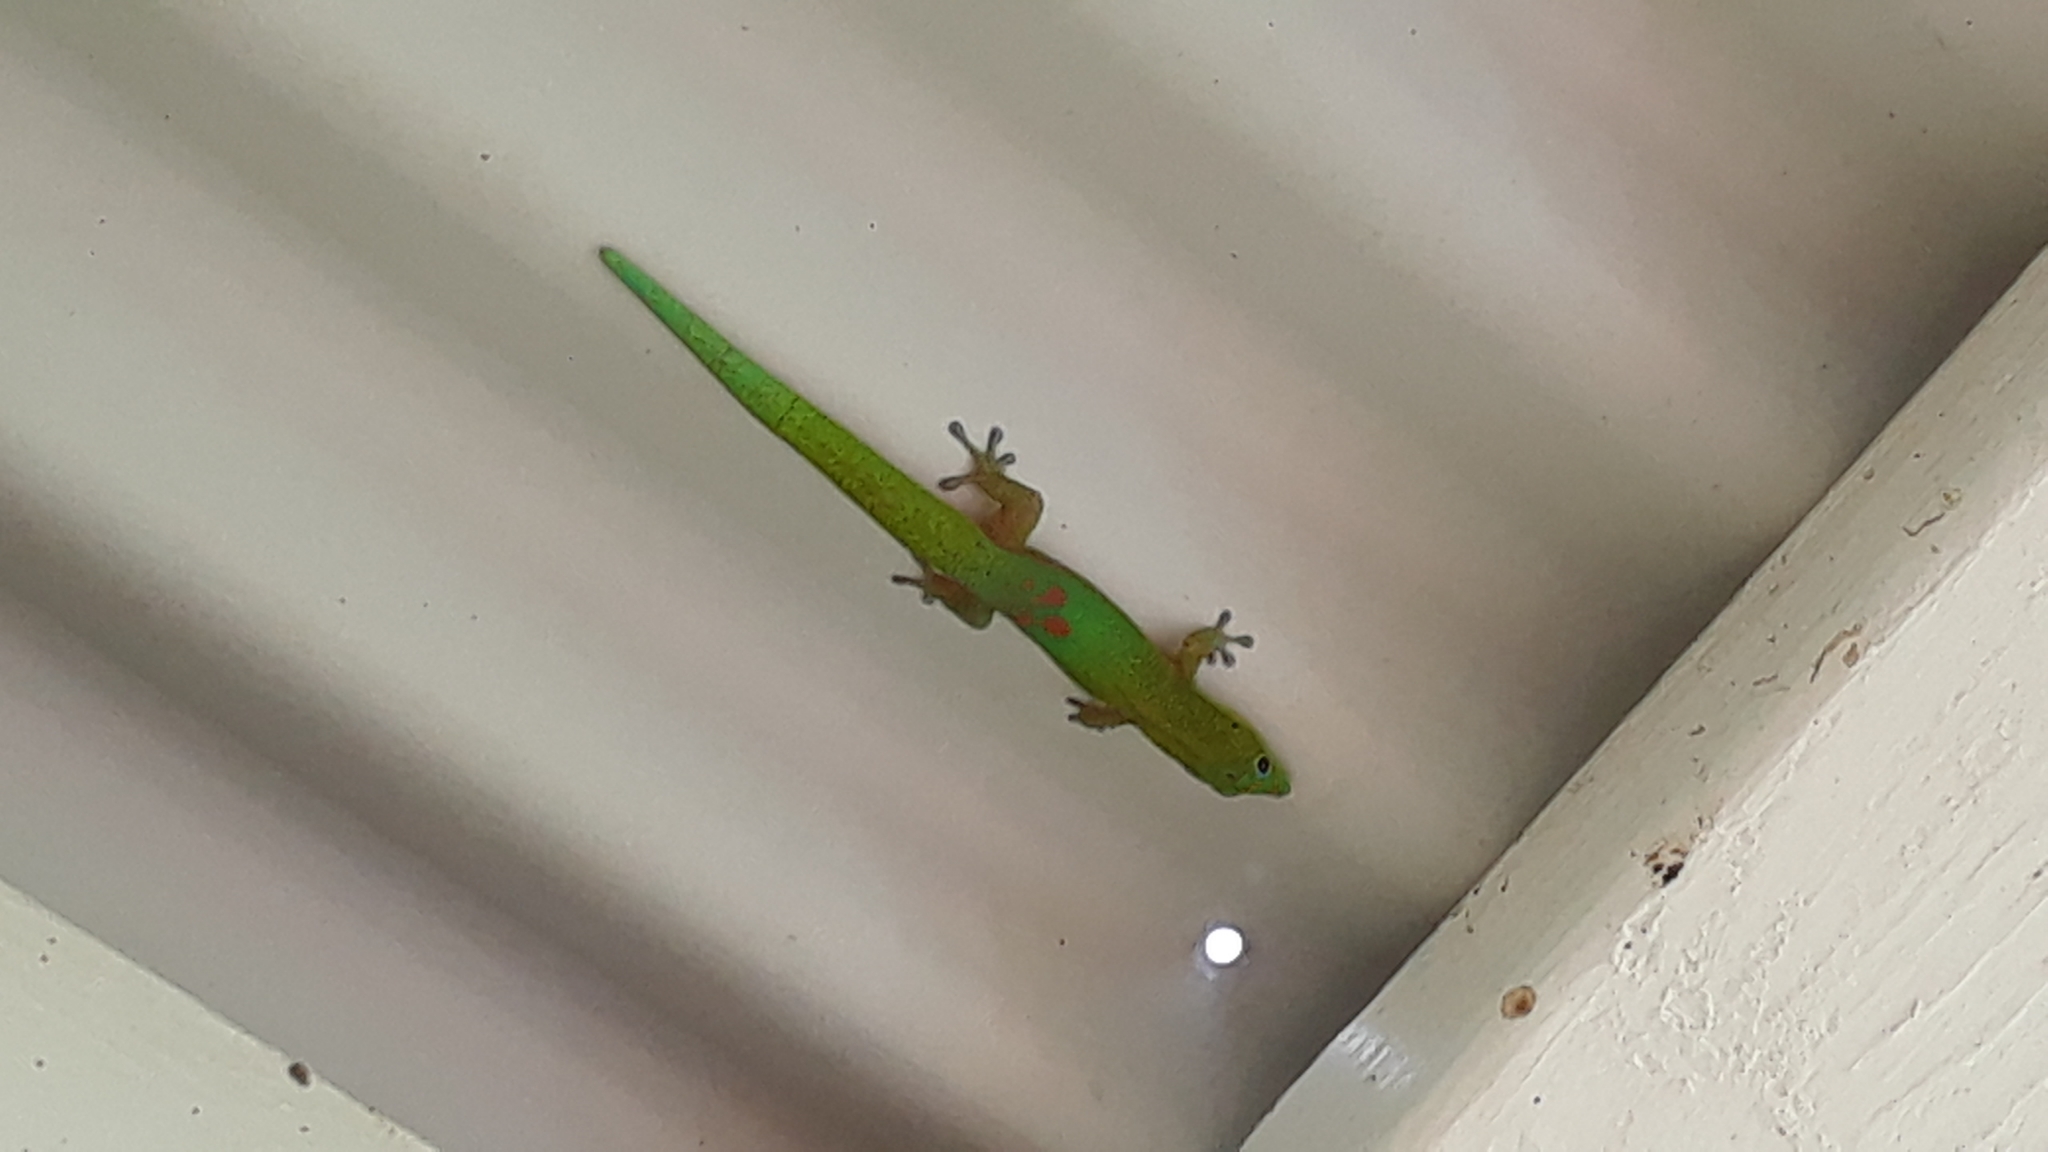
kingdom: Animalia
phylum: Chordata
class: Squamata
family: Gekkonidae
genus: Phelsuma
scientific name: Phelsuma laticauda
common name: Gold dust day gecko
